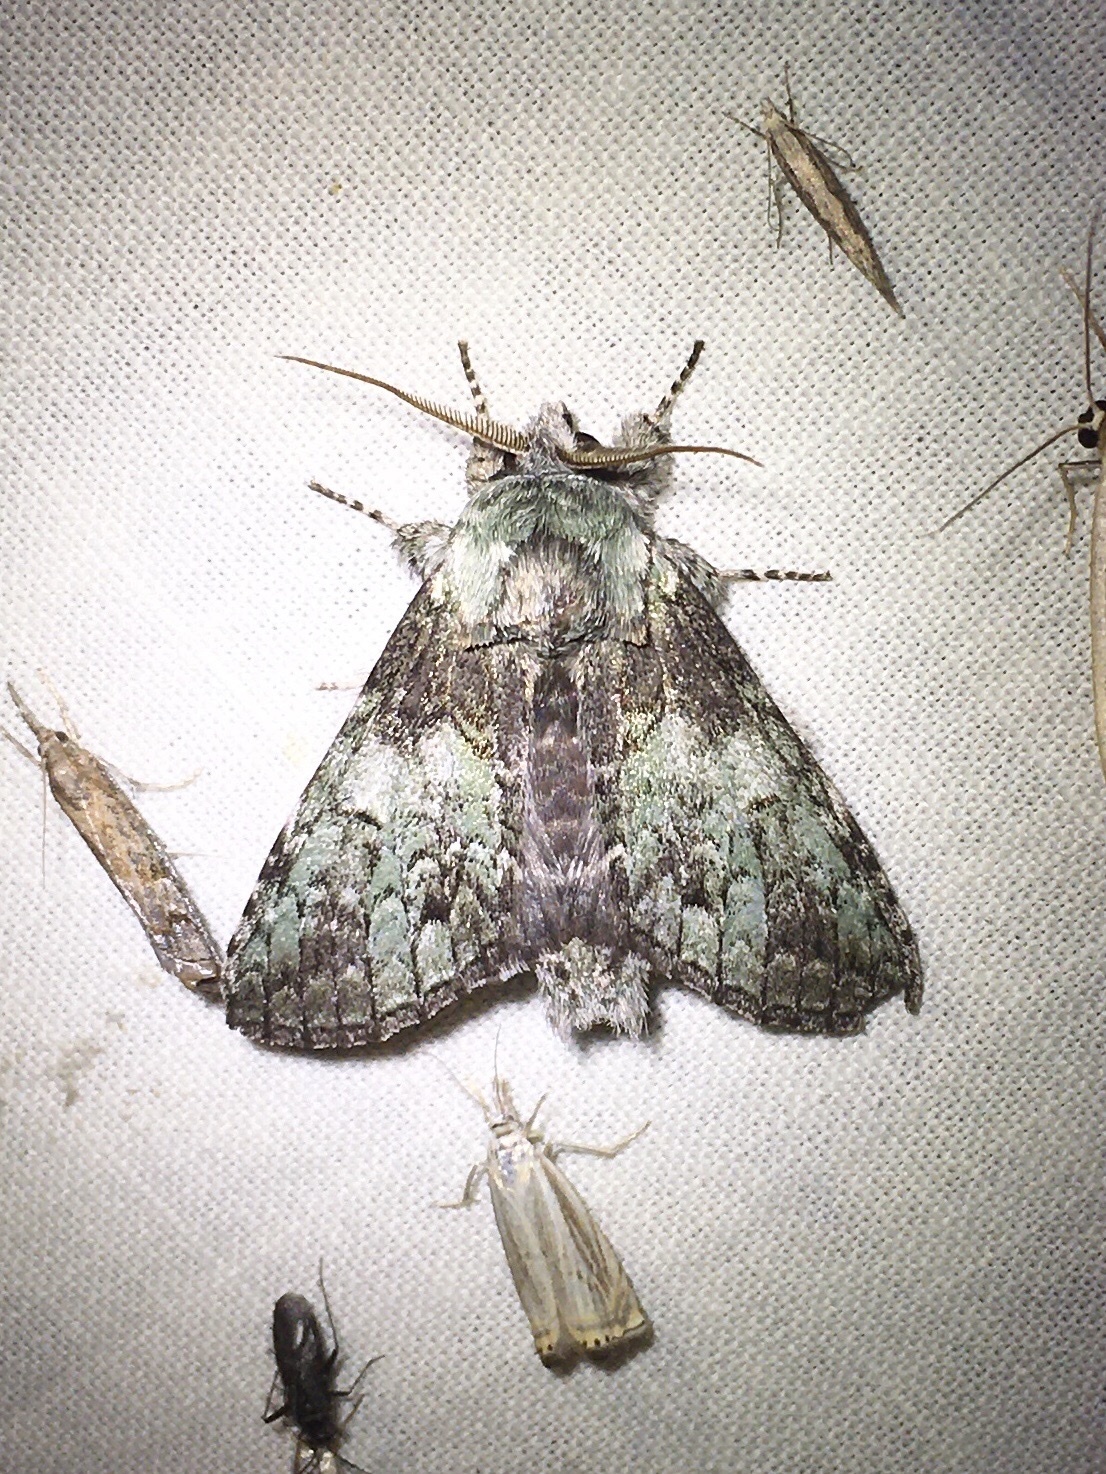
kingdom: Animalia
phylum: Arthropoda
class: Insecta
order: Lepidoptera
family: Notodontidae
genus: Macrurocampa
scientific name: Macrurocampa marthesia
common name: Mottled prominent
